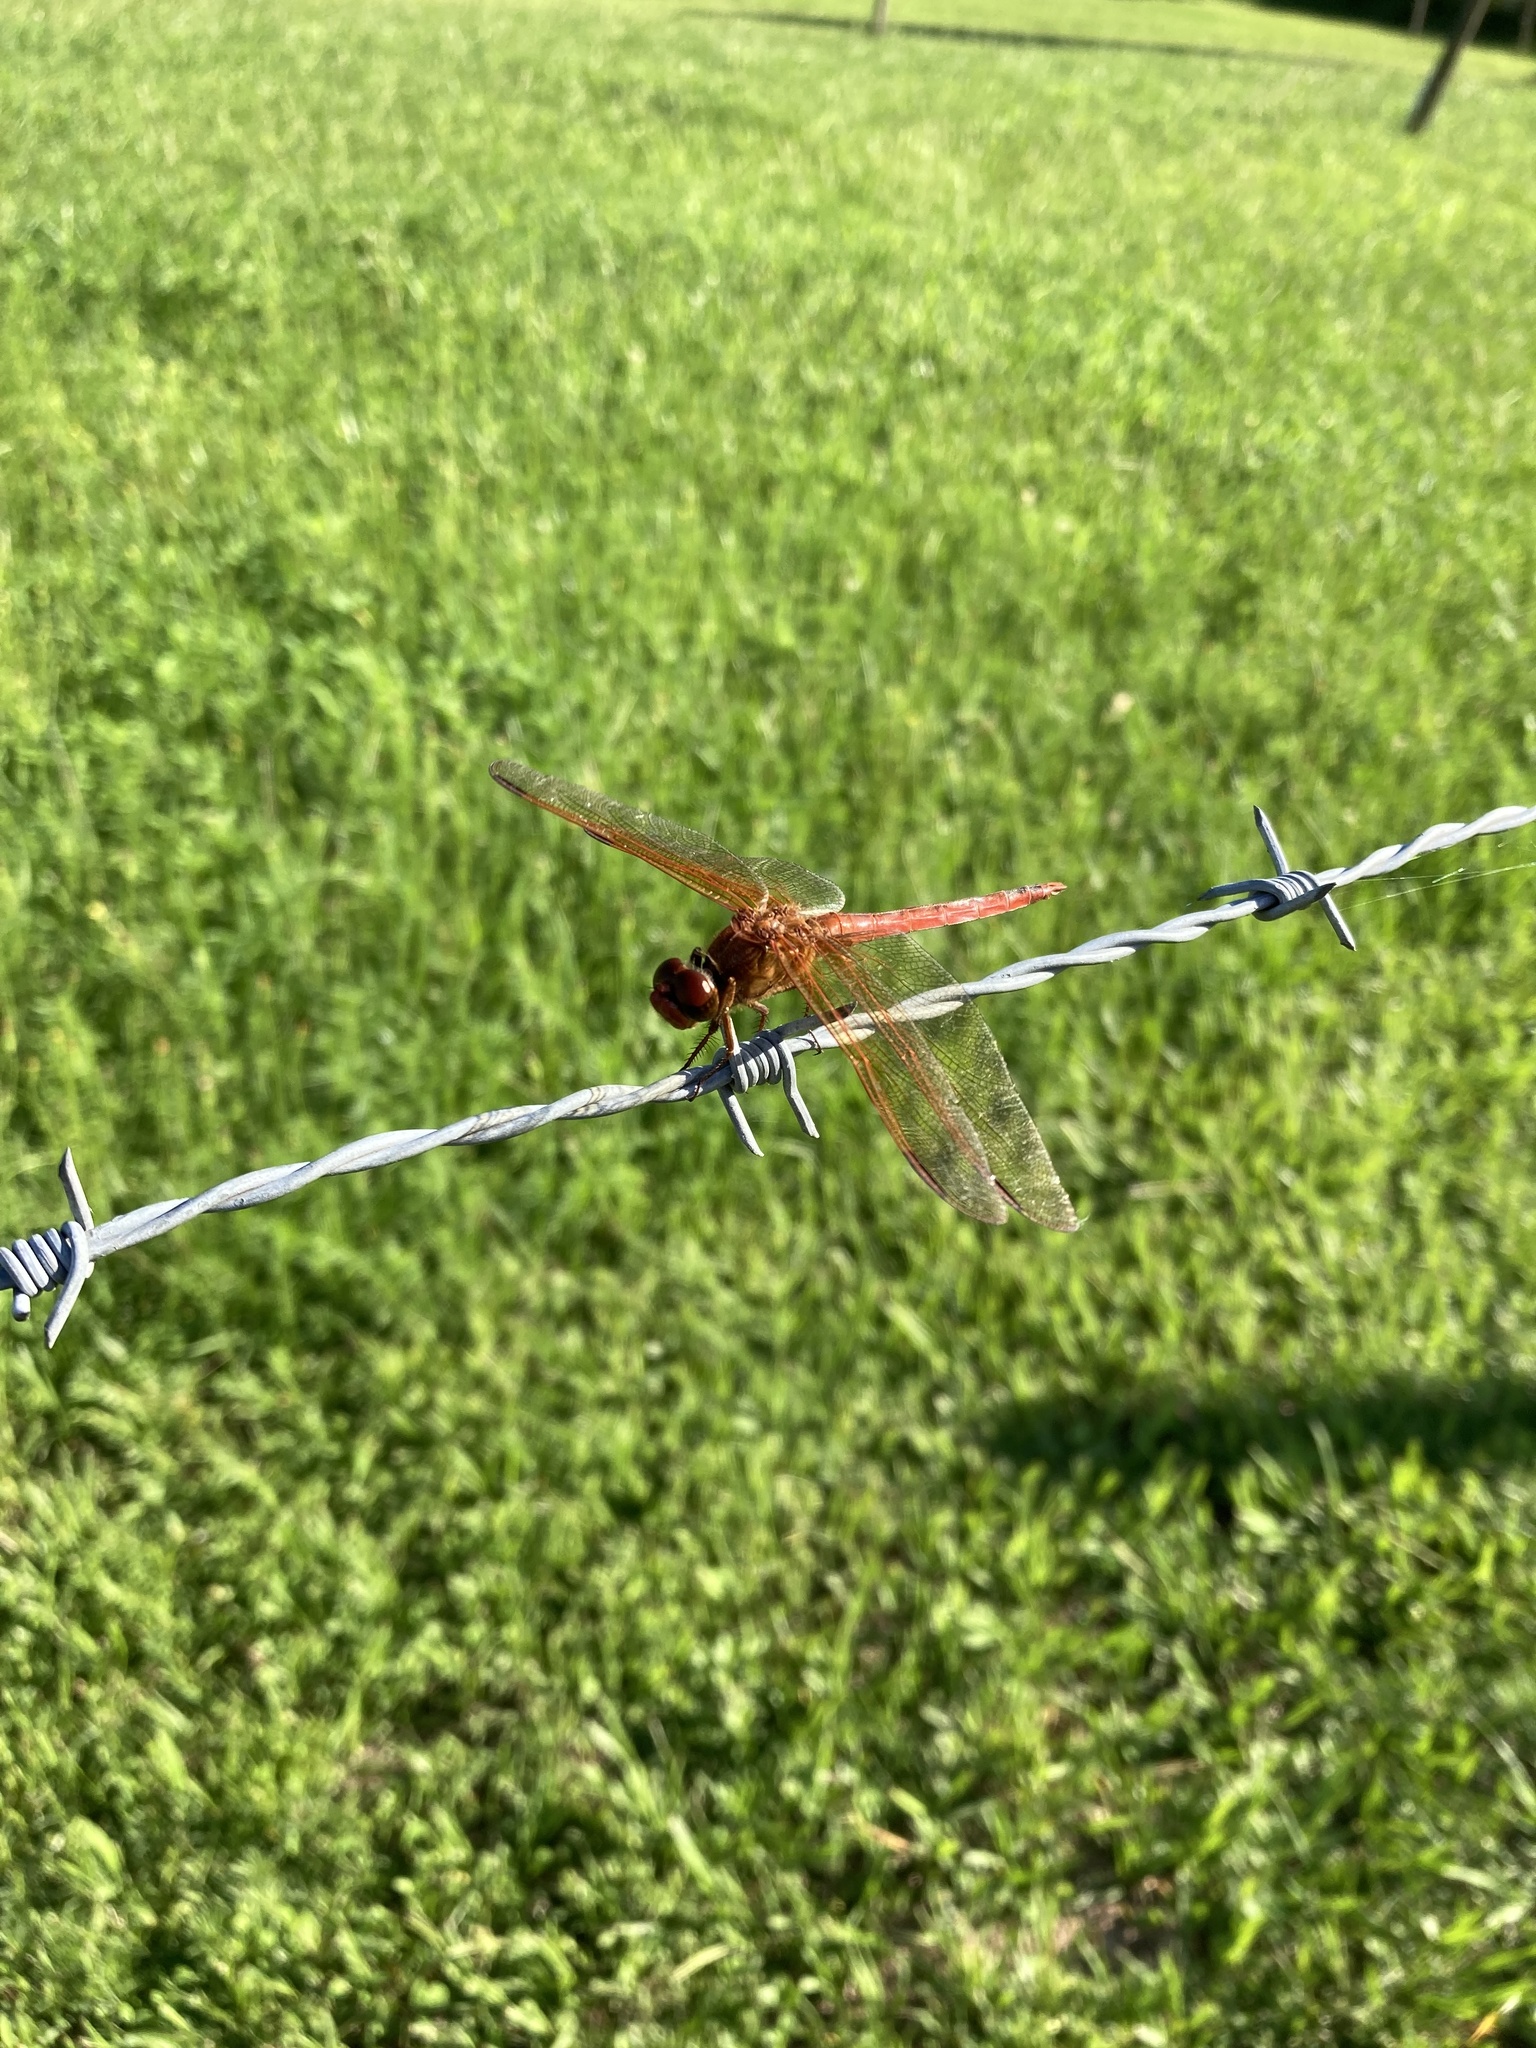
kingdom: Animalia
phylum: Arthropoda
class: Insecta
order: Odonata
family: Libellulidae
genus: Libellula
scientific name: Libellula needhami
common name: Needham's skimmer
